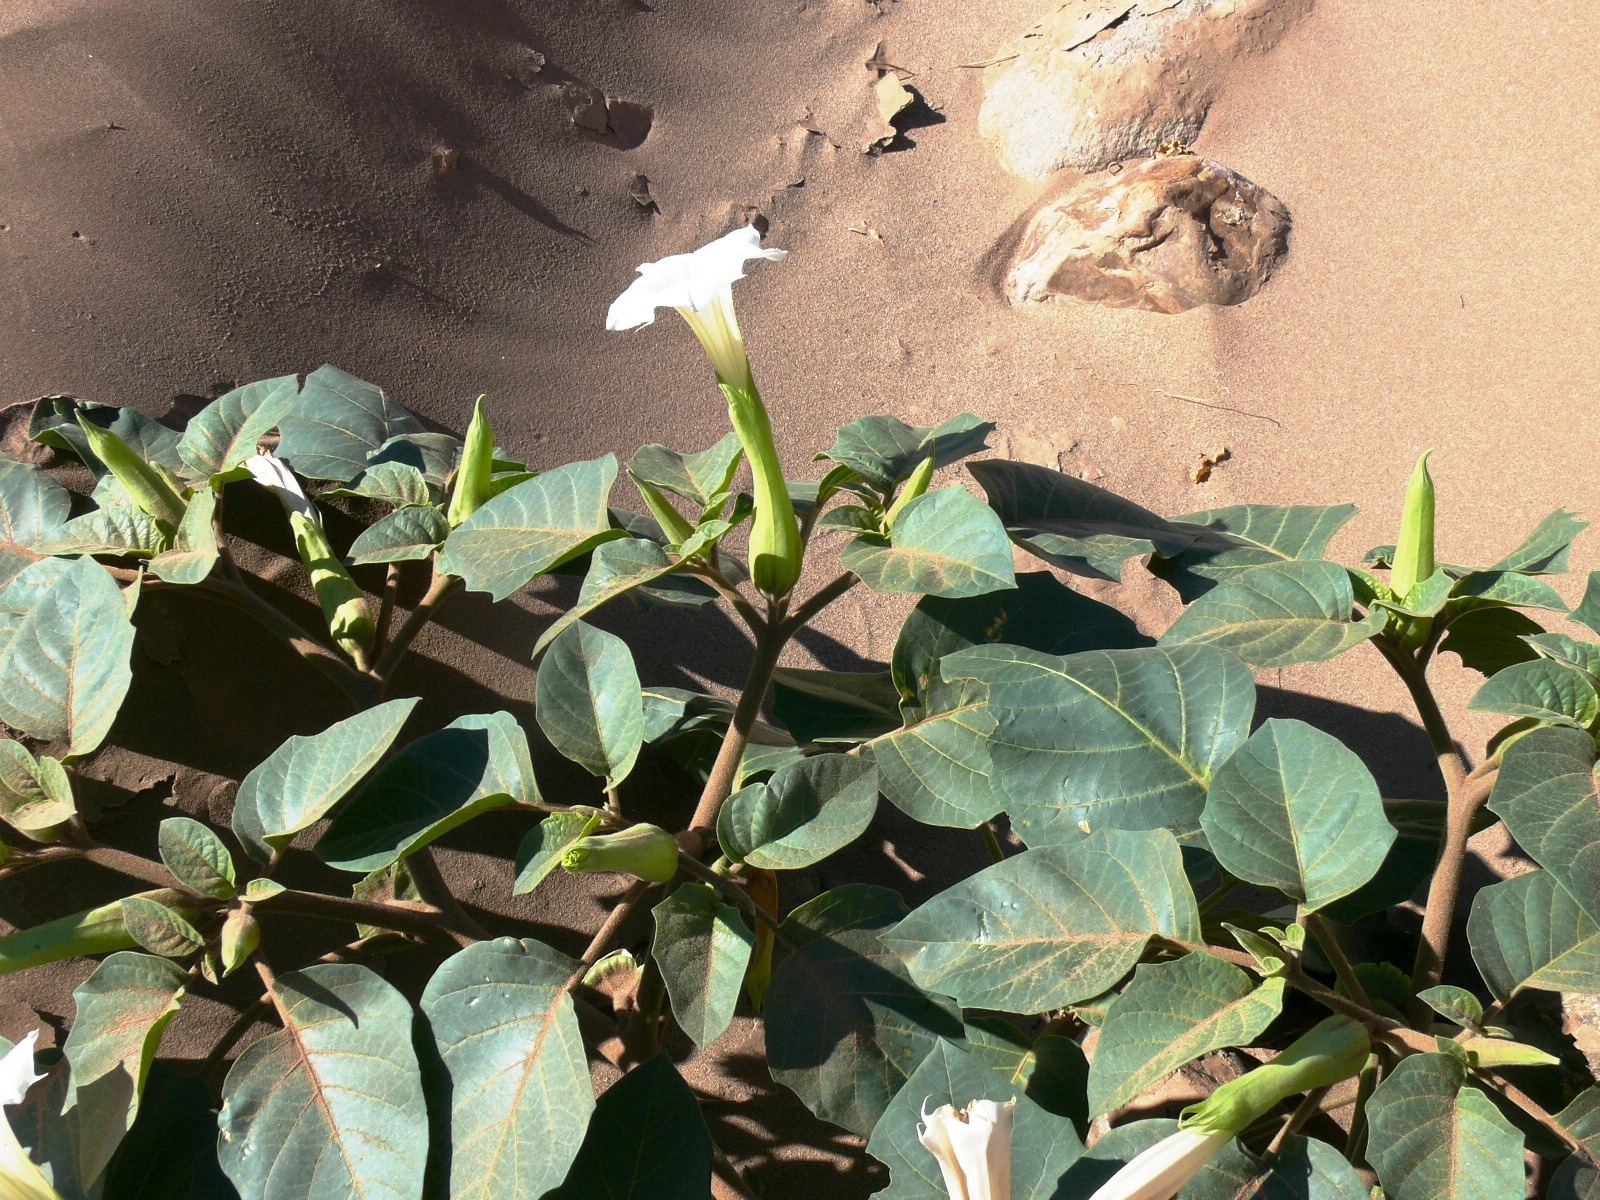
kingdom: Plantae
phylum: Tracheophyta
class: Magnoliopsida
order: Solanales
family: Solanaceae
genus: Datura
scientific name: Datura innoxia
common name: Downy thorn-apple
